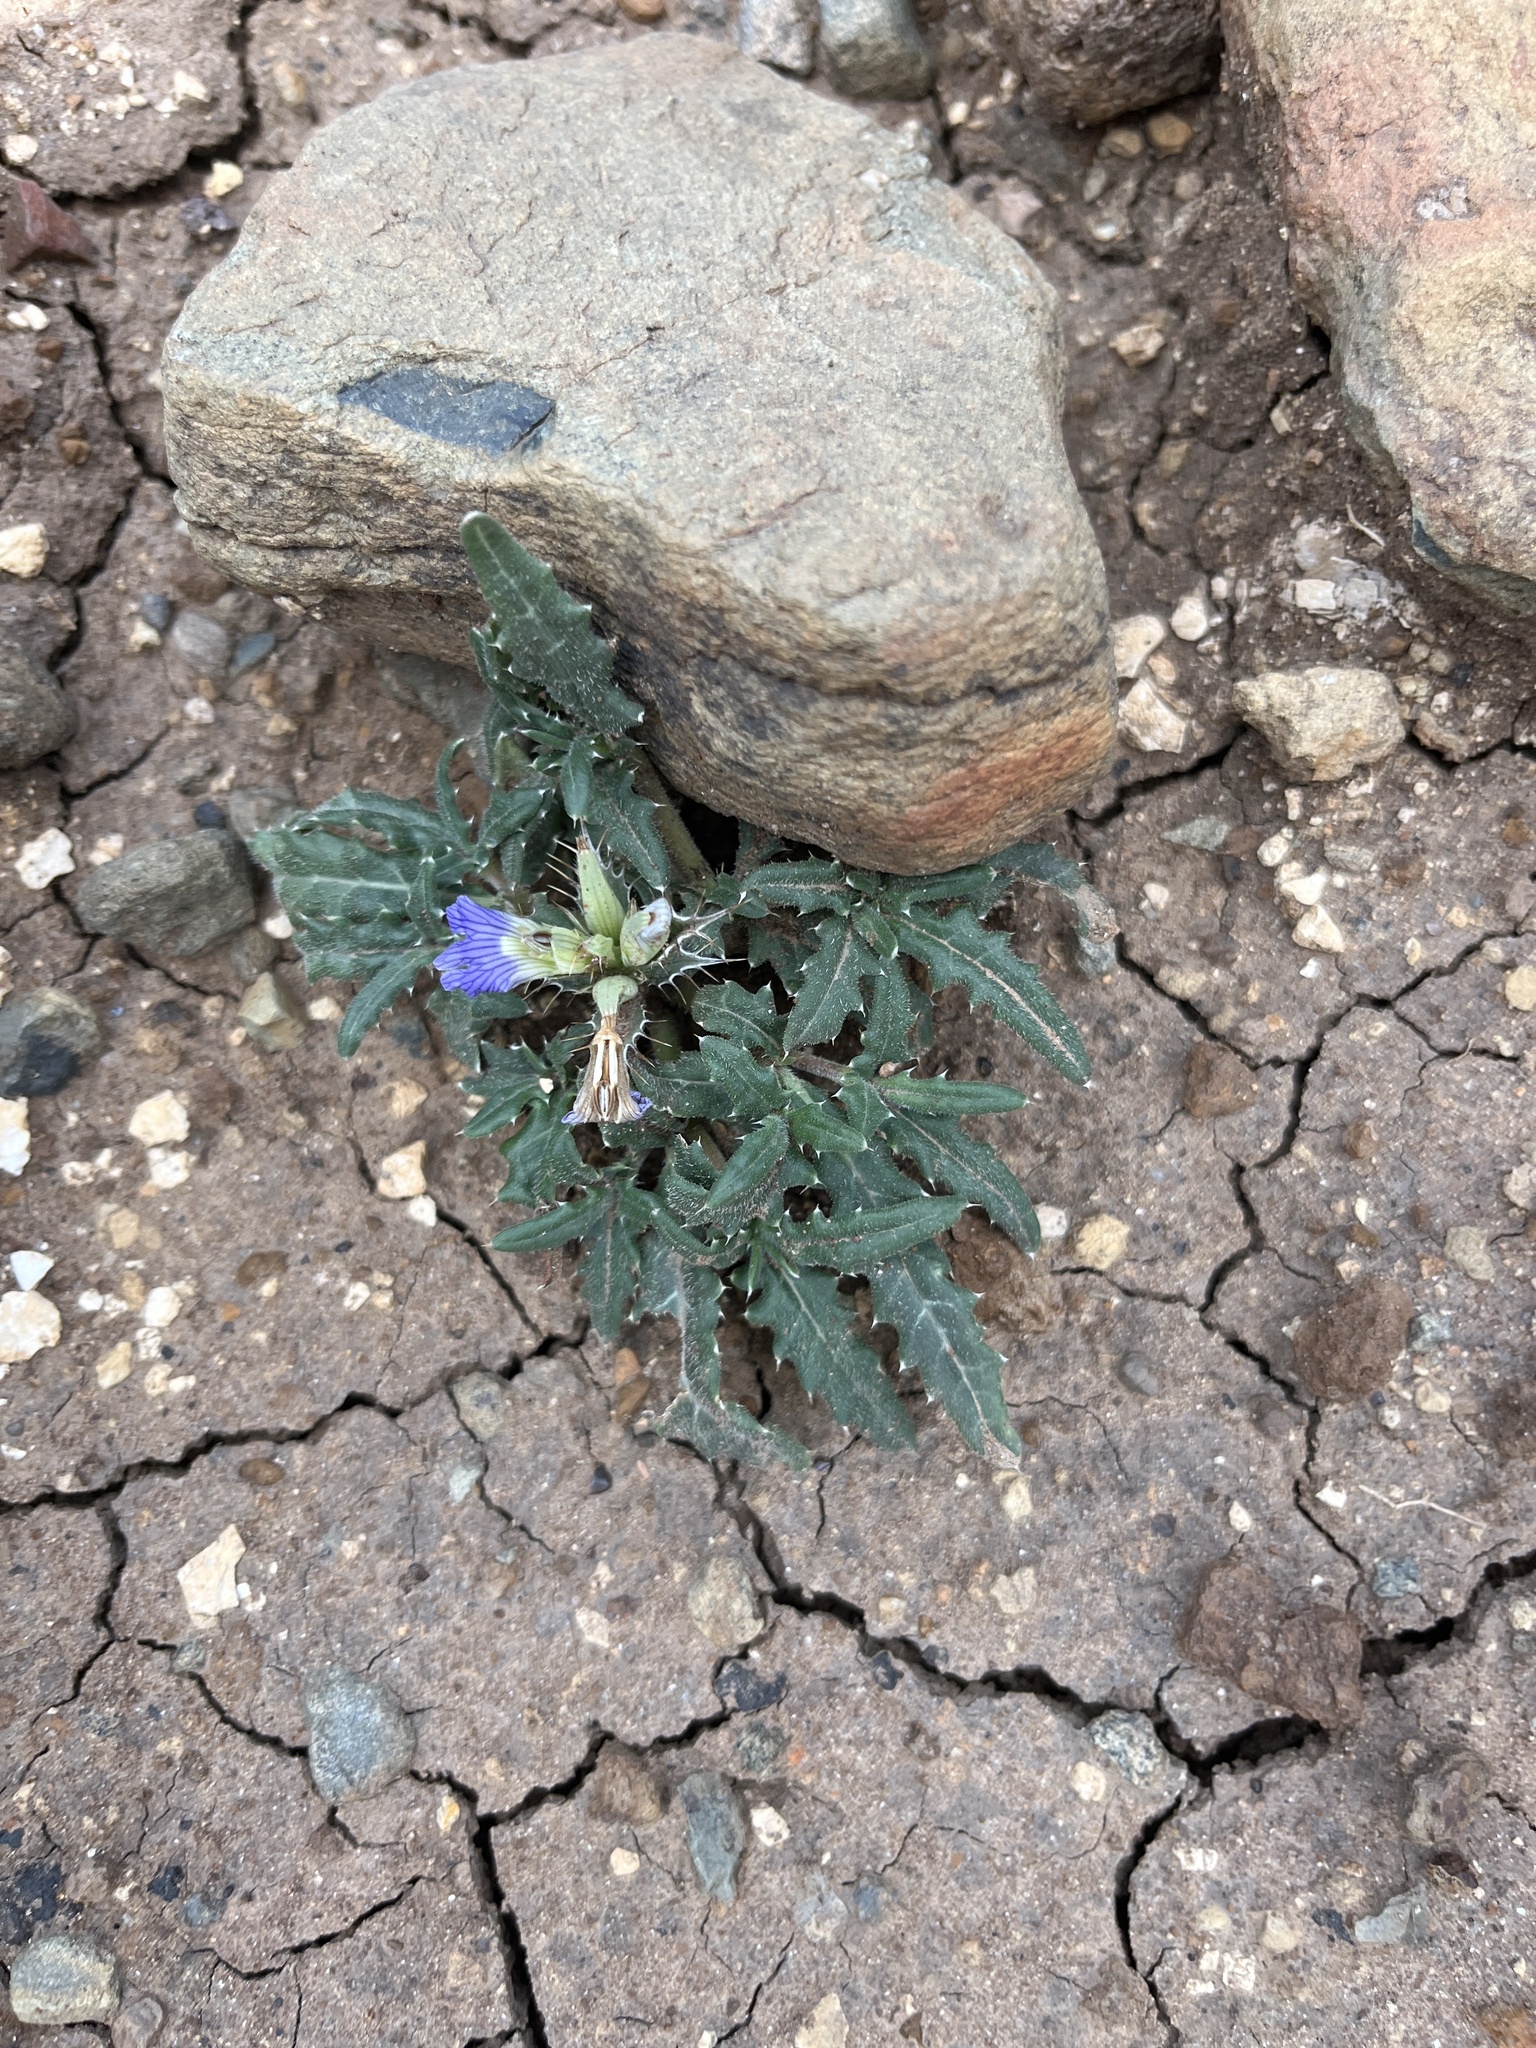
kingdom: Plantae
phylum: Tracheophyta
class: Magnoliopsida
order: Lamiales
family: Acanthaceae
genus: Blepharis
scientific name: Blepharis edulis
